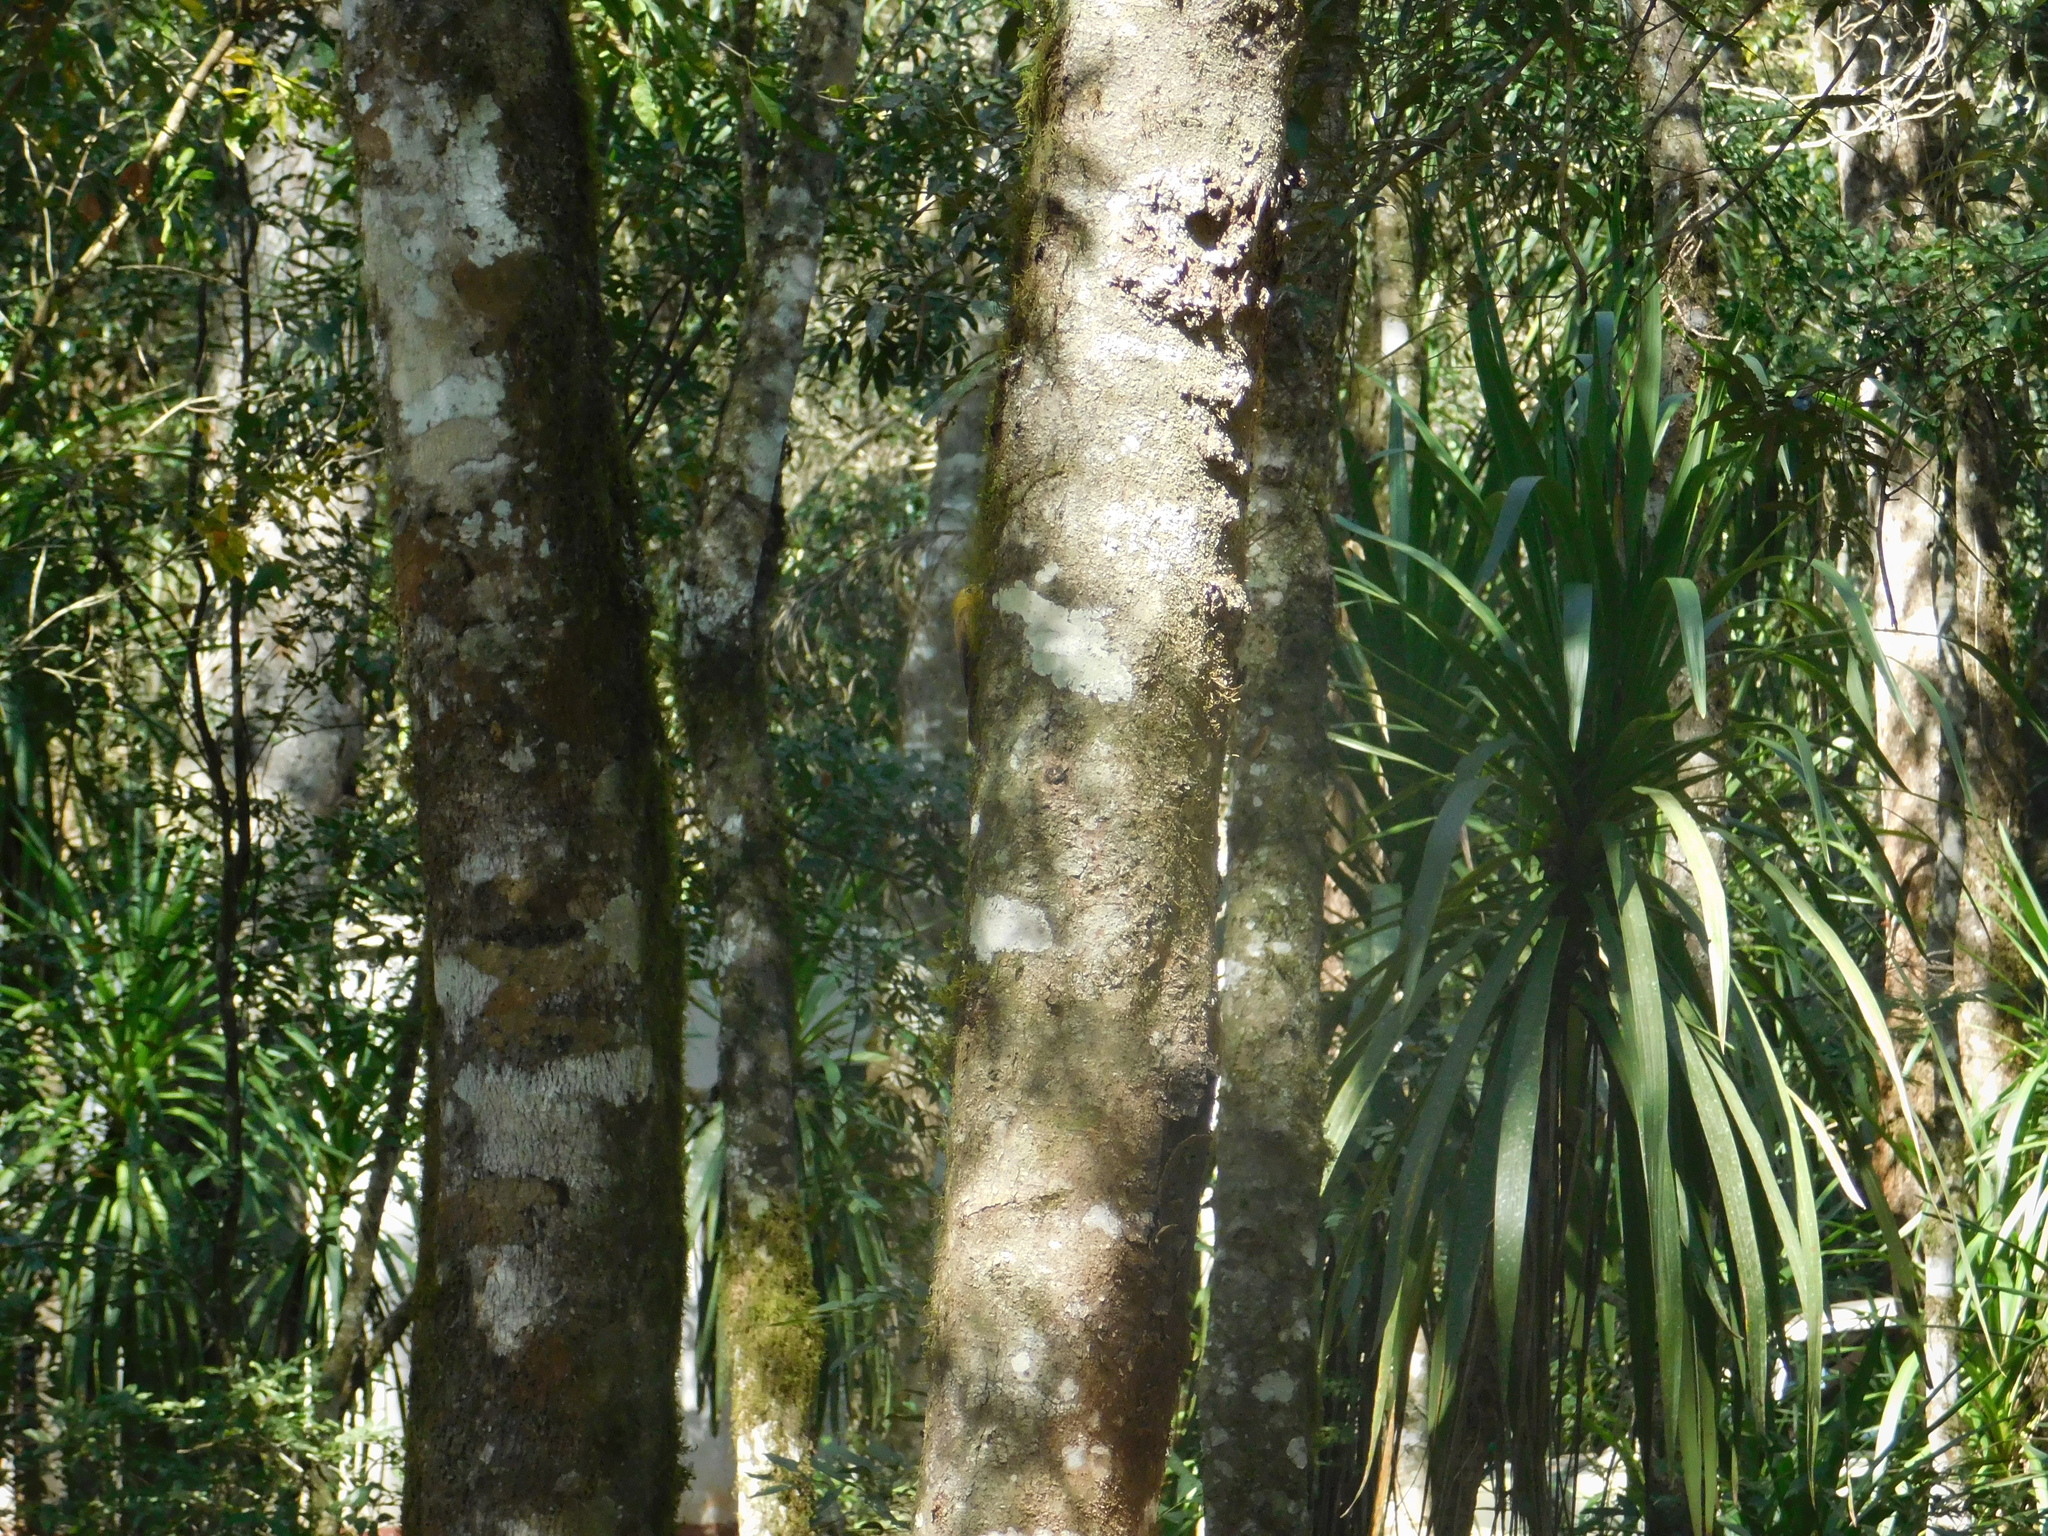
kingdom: Animalia
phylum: Chordata
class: Aves
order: Passeriformes
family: Furnariidae
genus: Sittasomus
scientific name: Sittasomus griseicapillus
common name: Olivaceous woodcreeper
